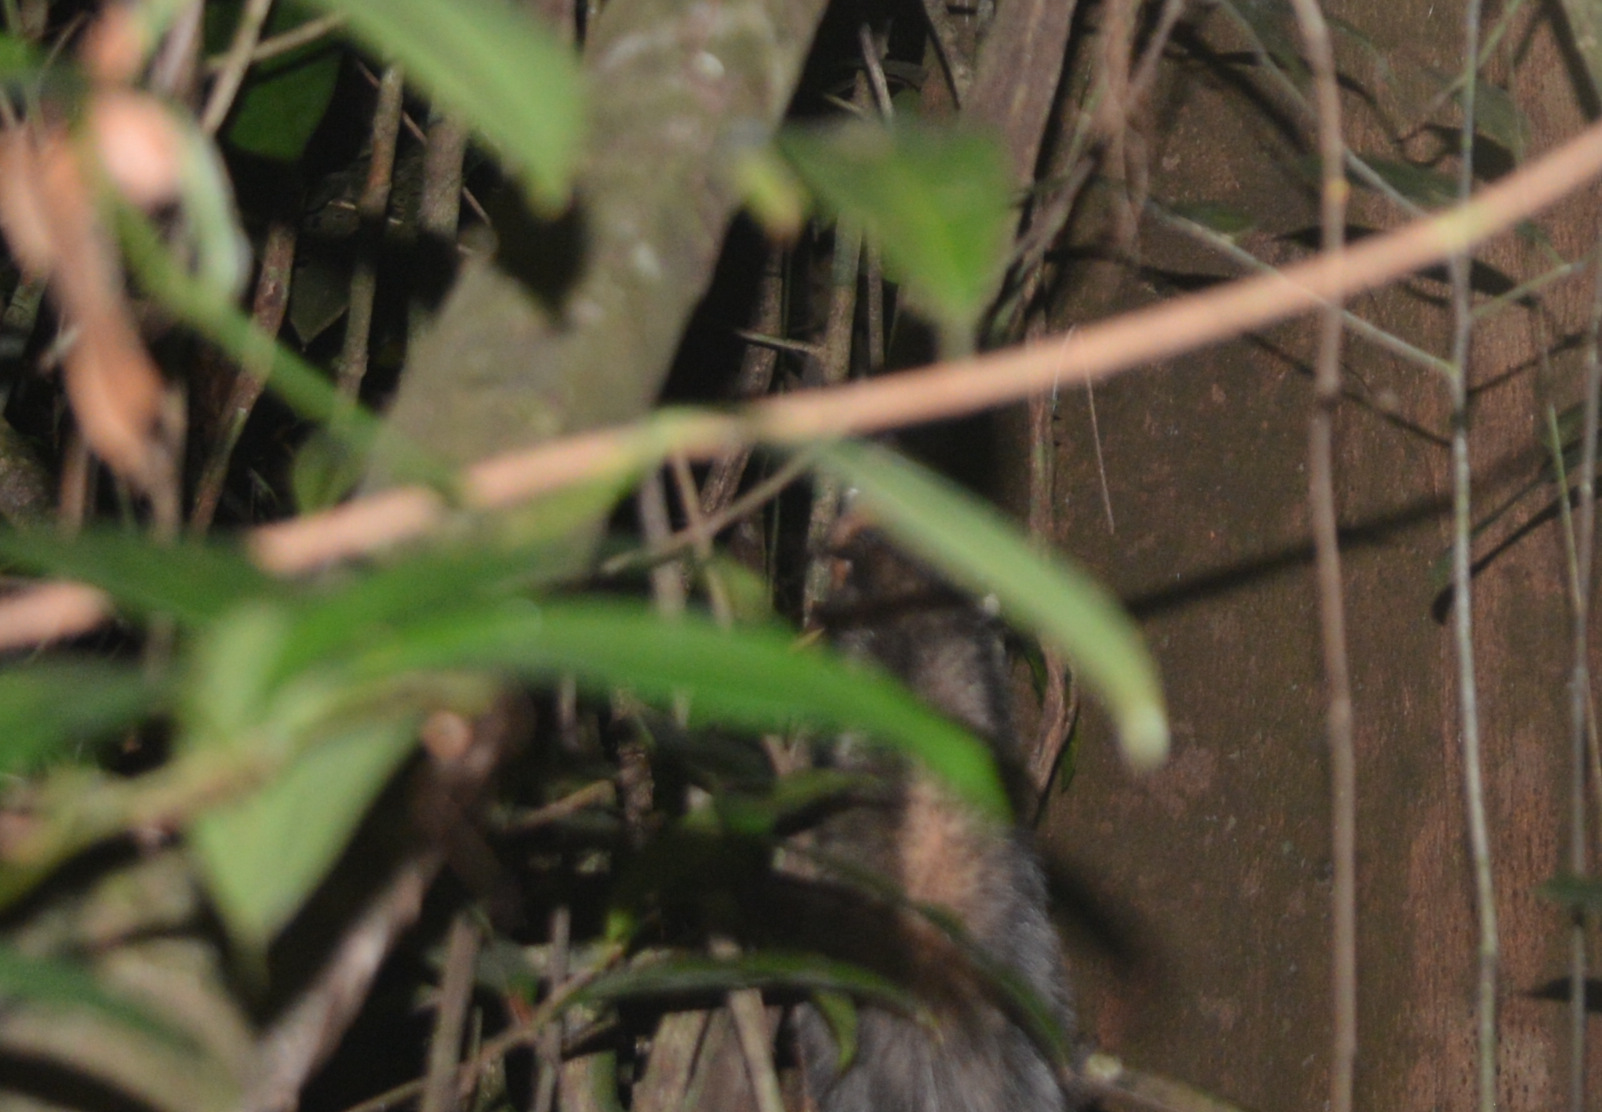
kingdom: Animalia
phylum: Chordata
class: Mammalia
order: Didelphimorphia
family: Didelphidae
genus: Didelphis
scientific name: Didelphis aurita
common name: Big-eared opossum
